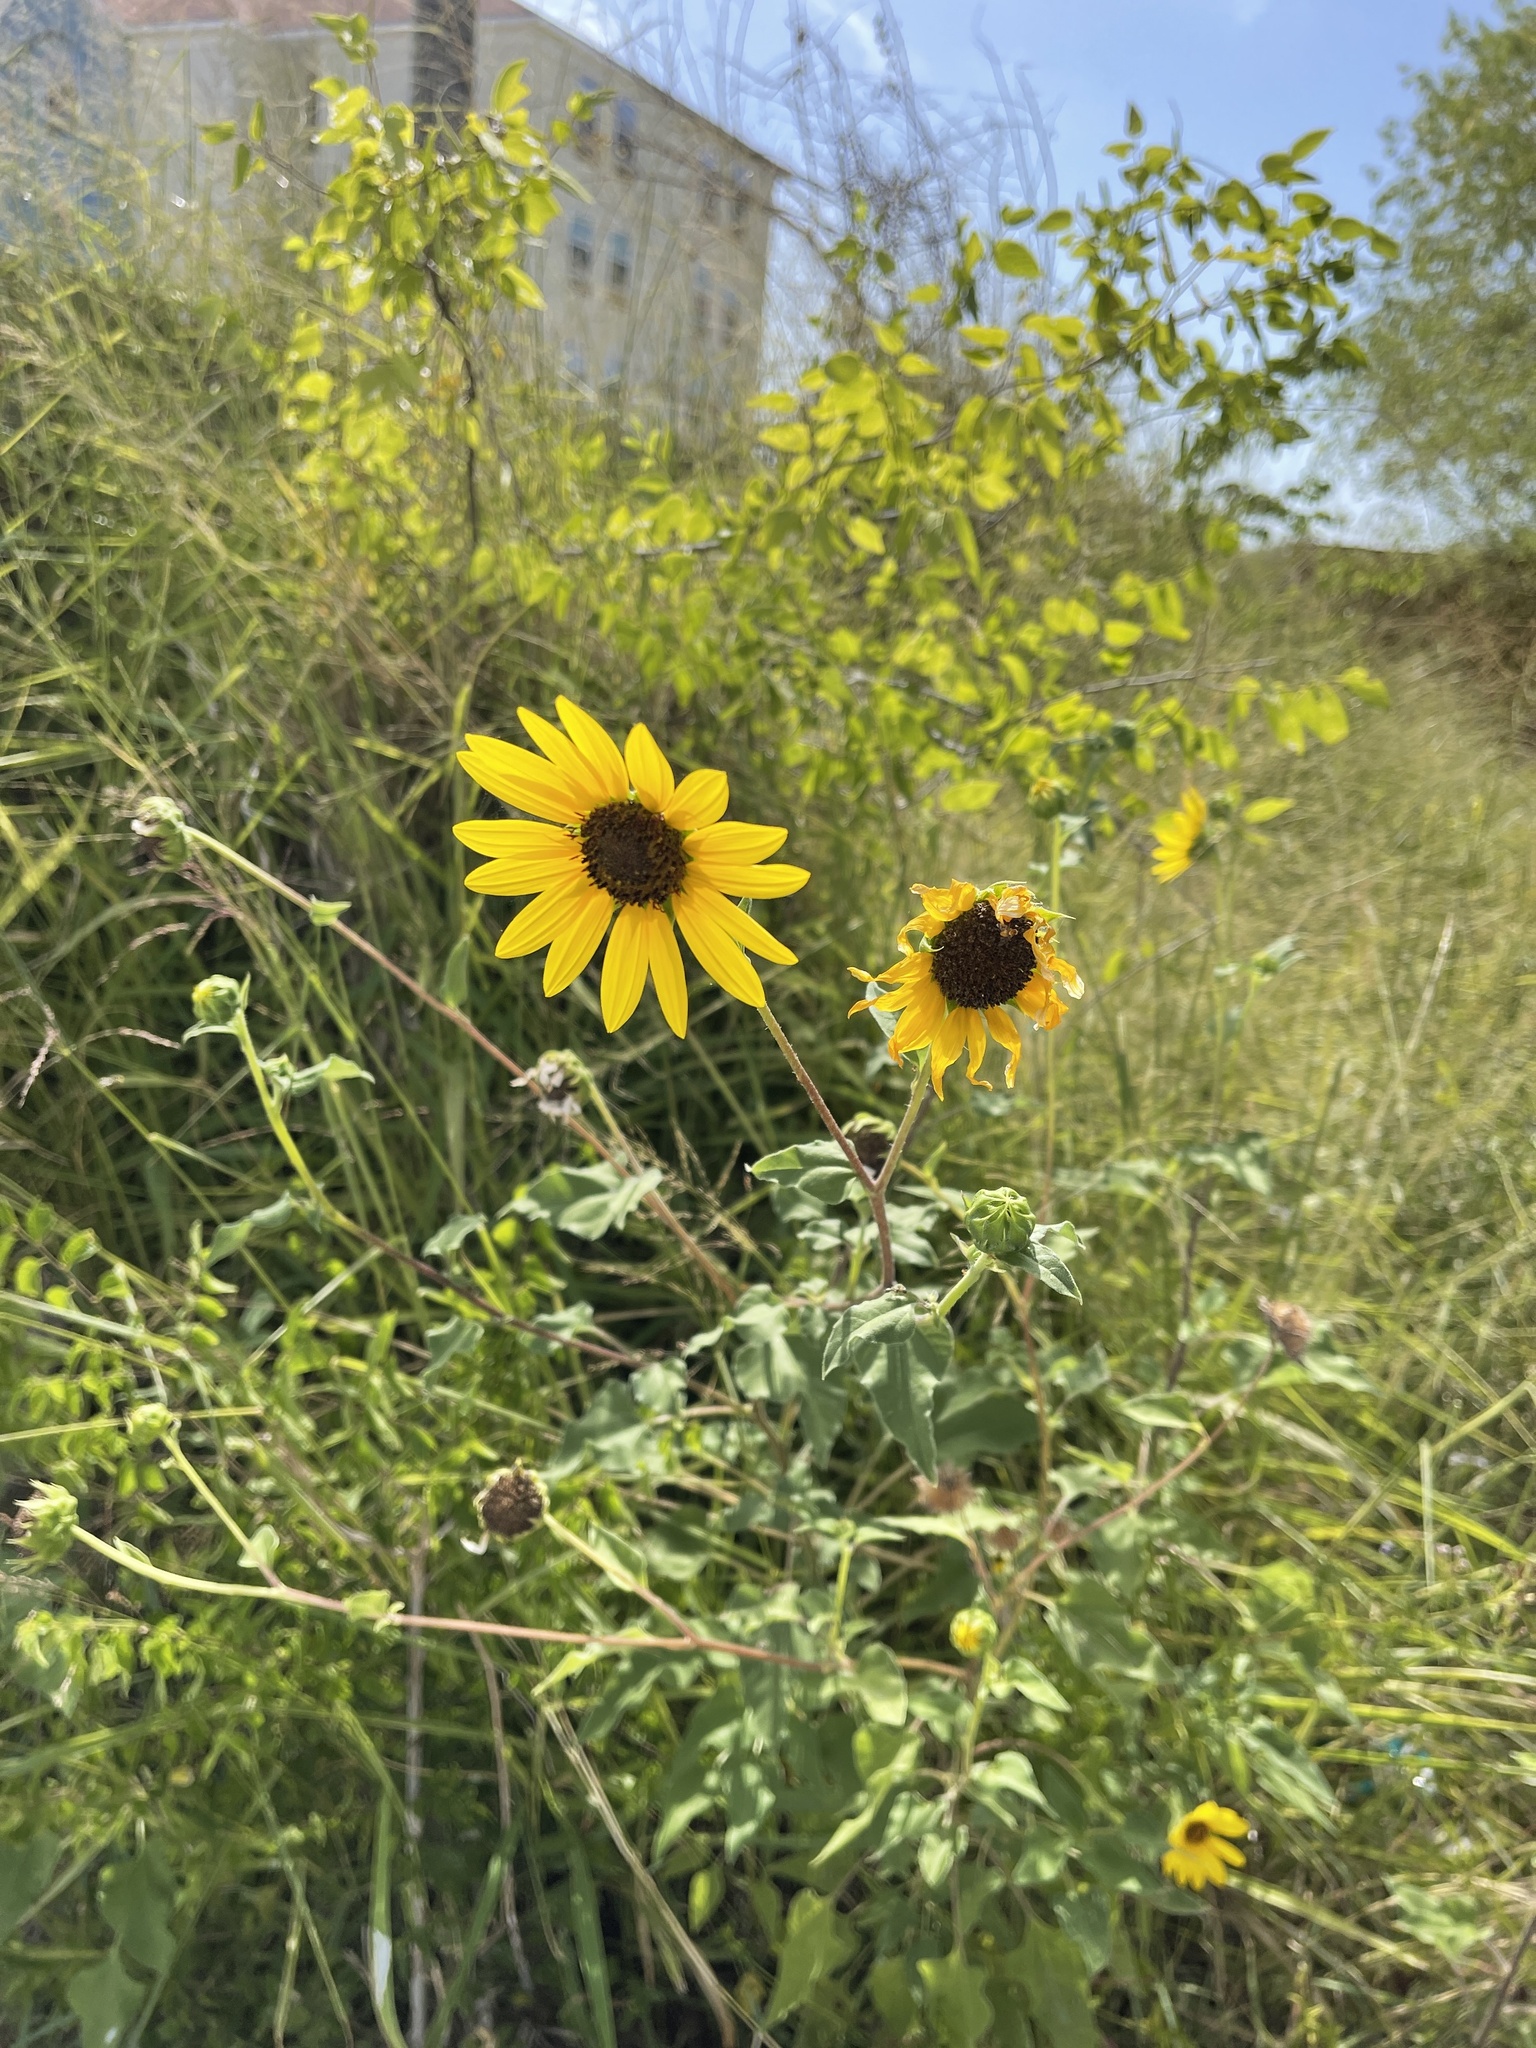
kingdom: Plantae
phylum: Tracheophyta
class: Magnoliopsida
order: Asterales
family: Asteraceae
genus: Helianthus
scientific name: Helianthus annuus
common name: Sunflower
